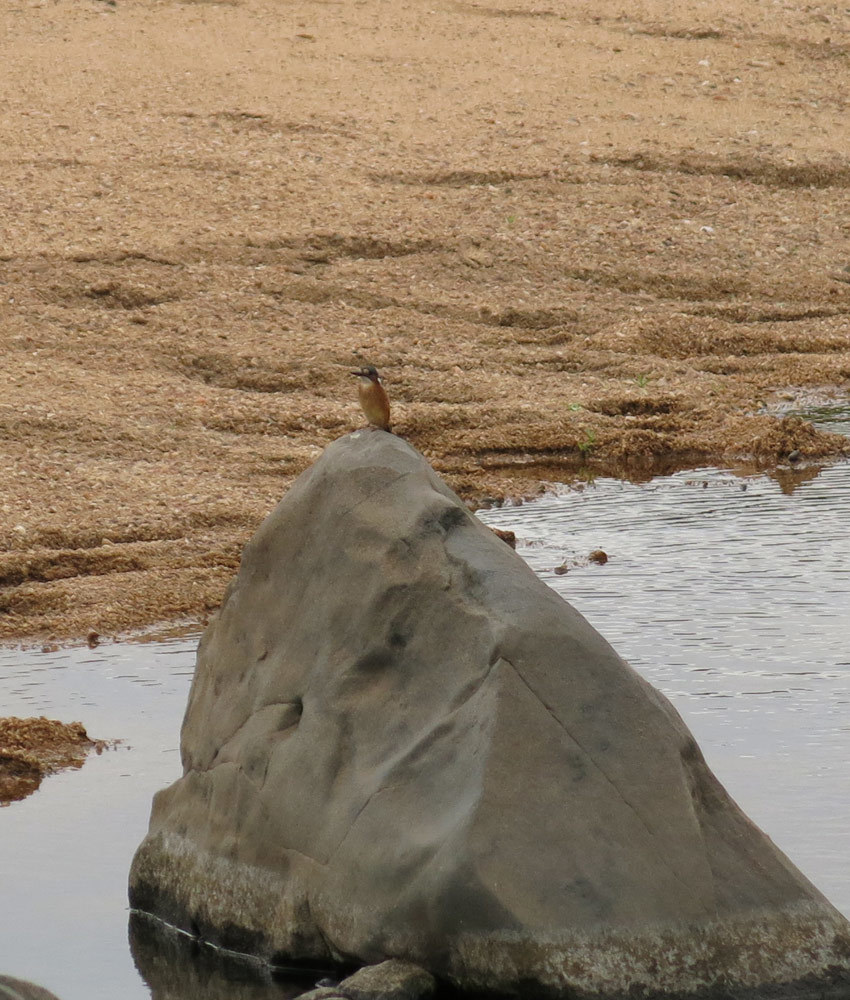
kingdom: Animalia
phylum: Chordata
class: Aves
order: Coraciiformes
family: Alcedinidae
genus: Corythornis
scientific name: Corythornis cristatus
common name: Malachite kingfisher
